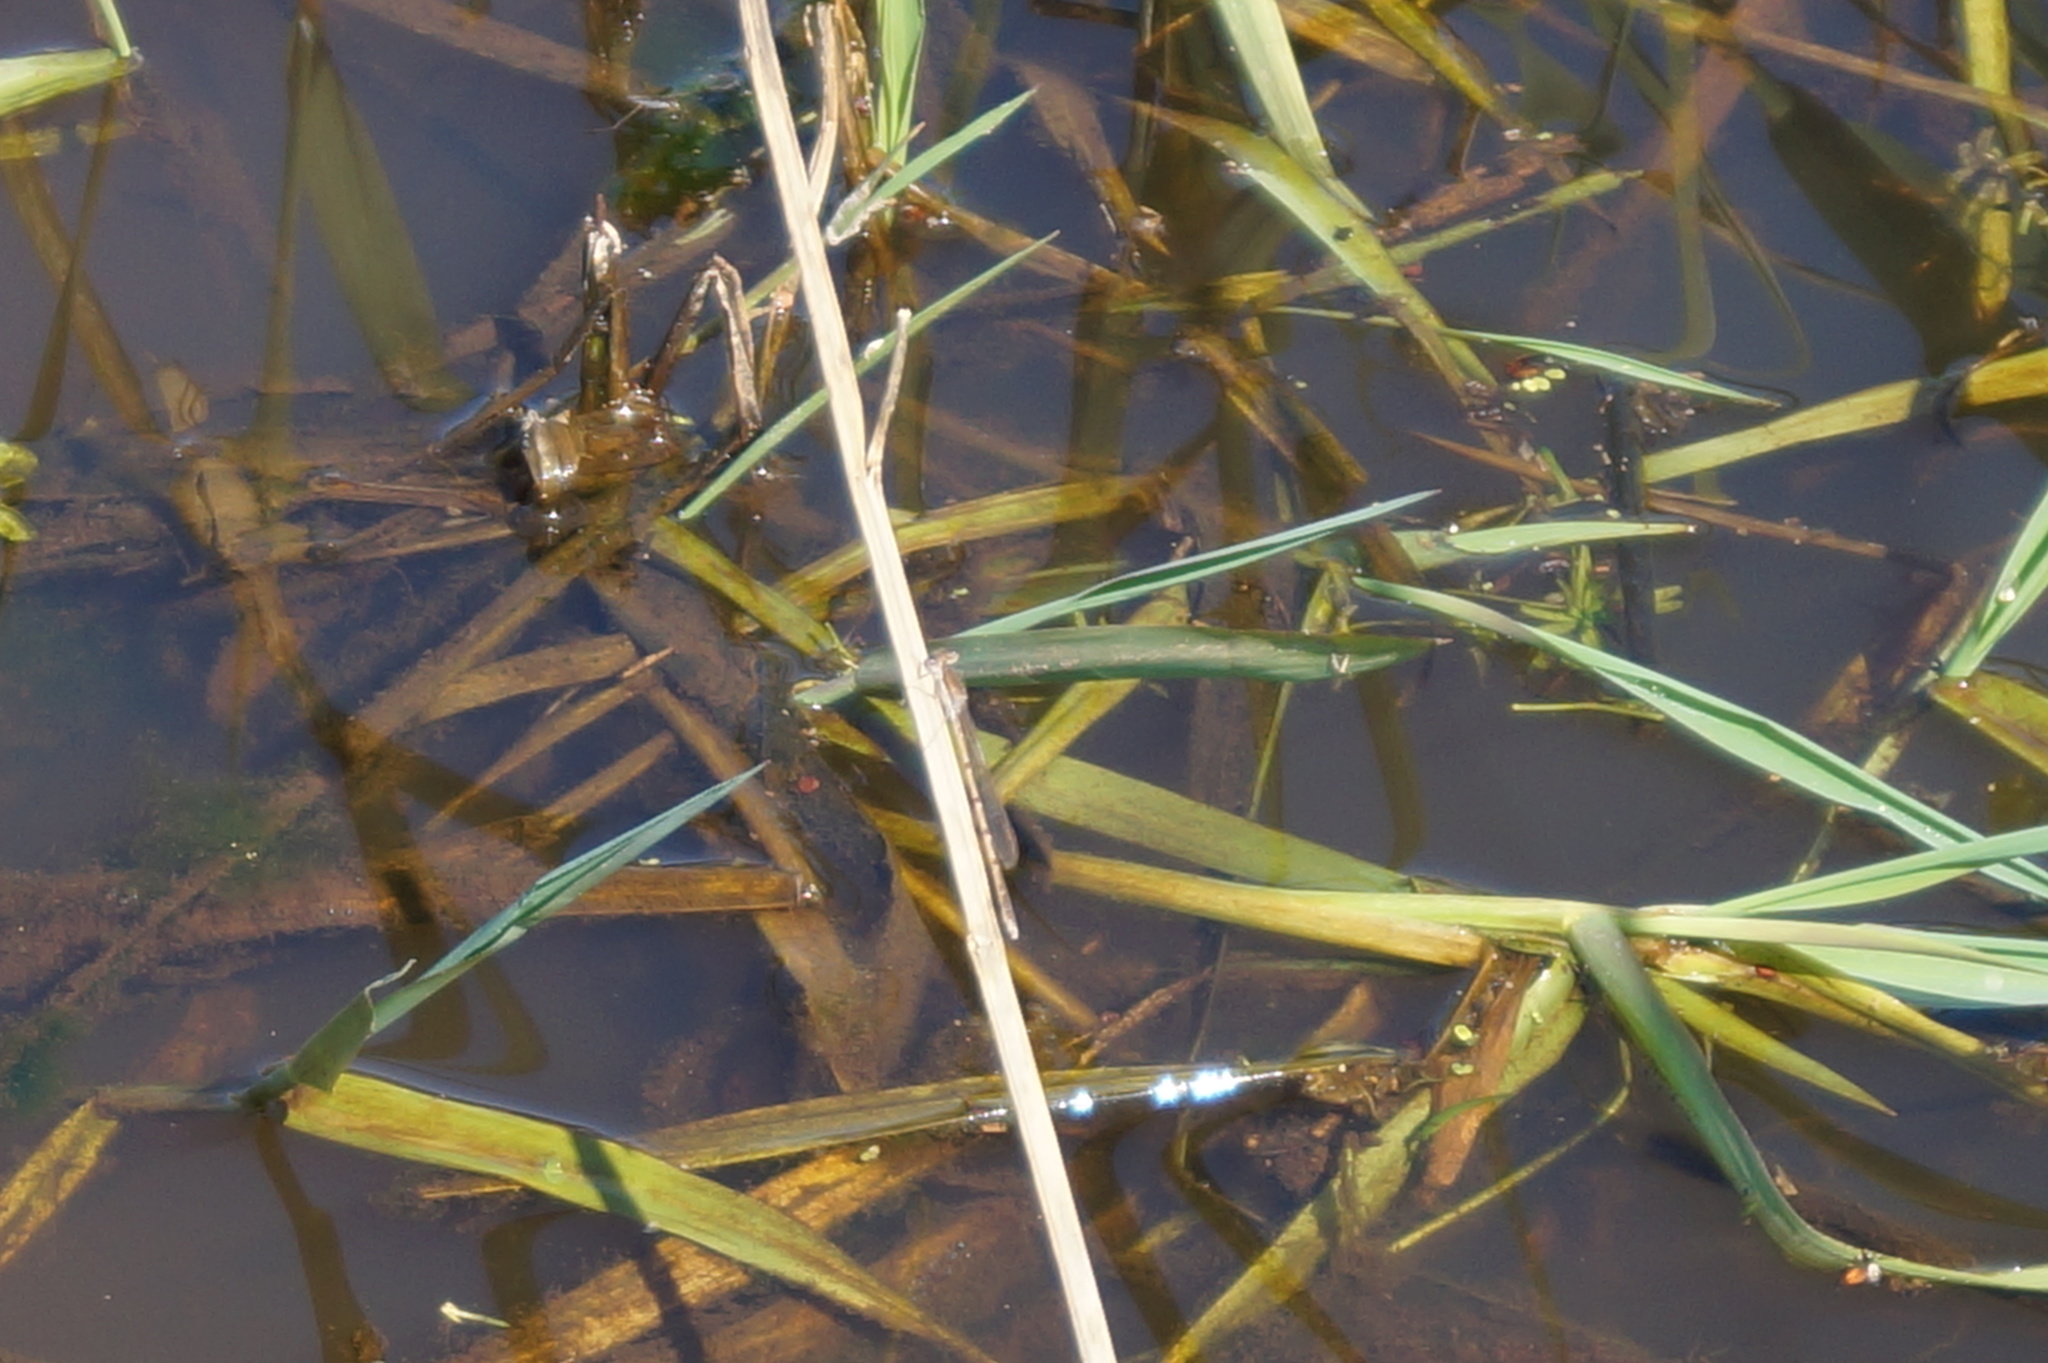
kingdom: Animalia
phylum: Arthropoda
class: Insecta
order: Odonata
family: Lestidae
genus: Sympecma
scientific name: Sympecma fusca
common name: Common winter damsel
